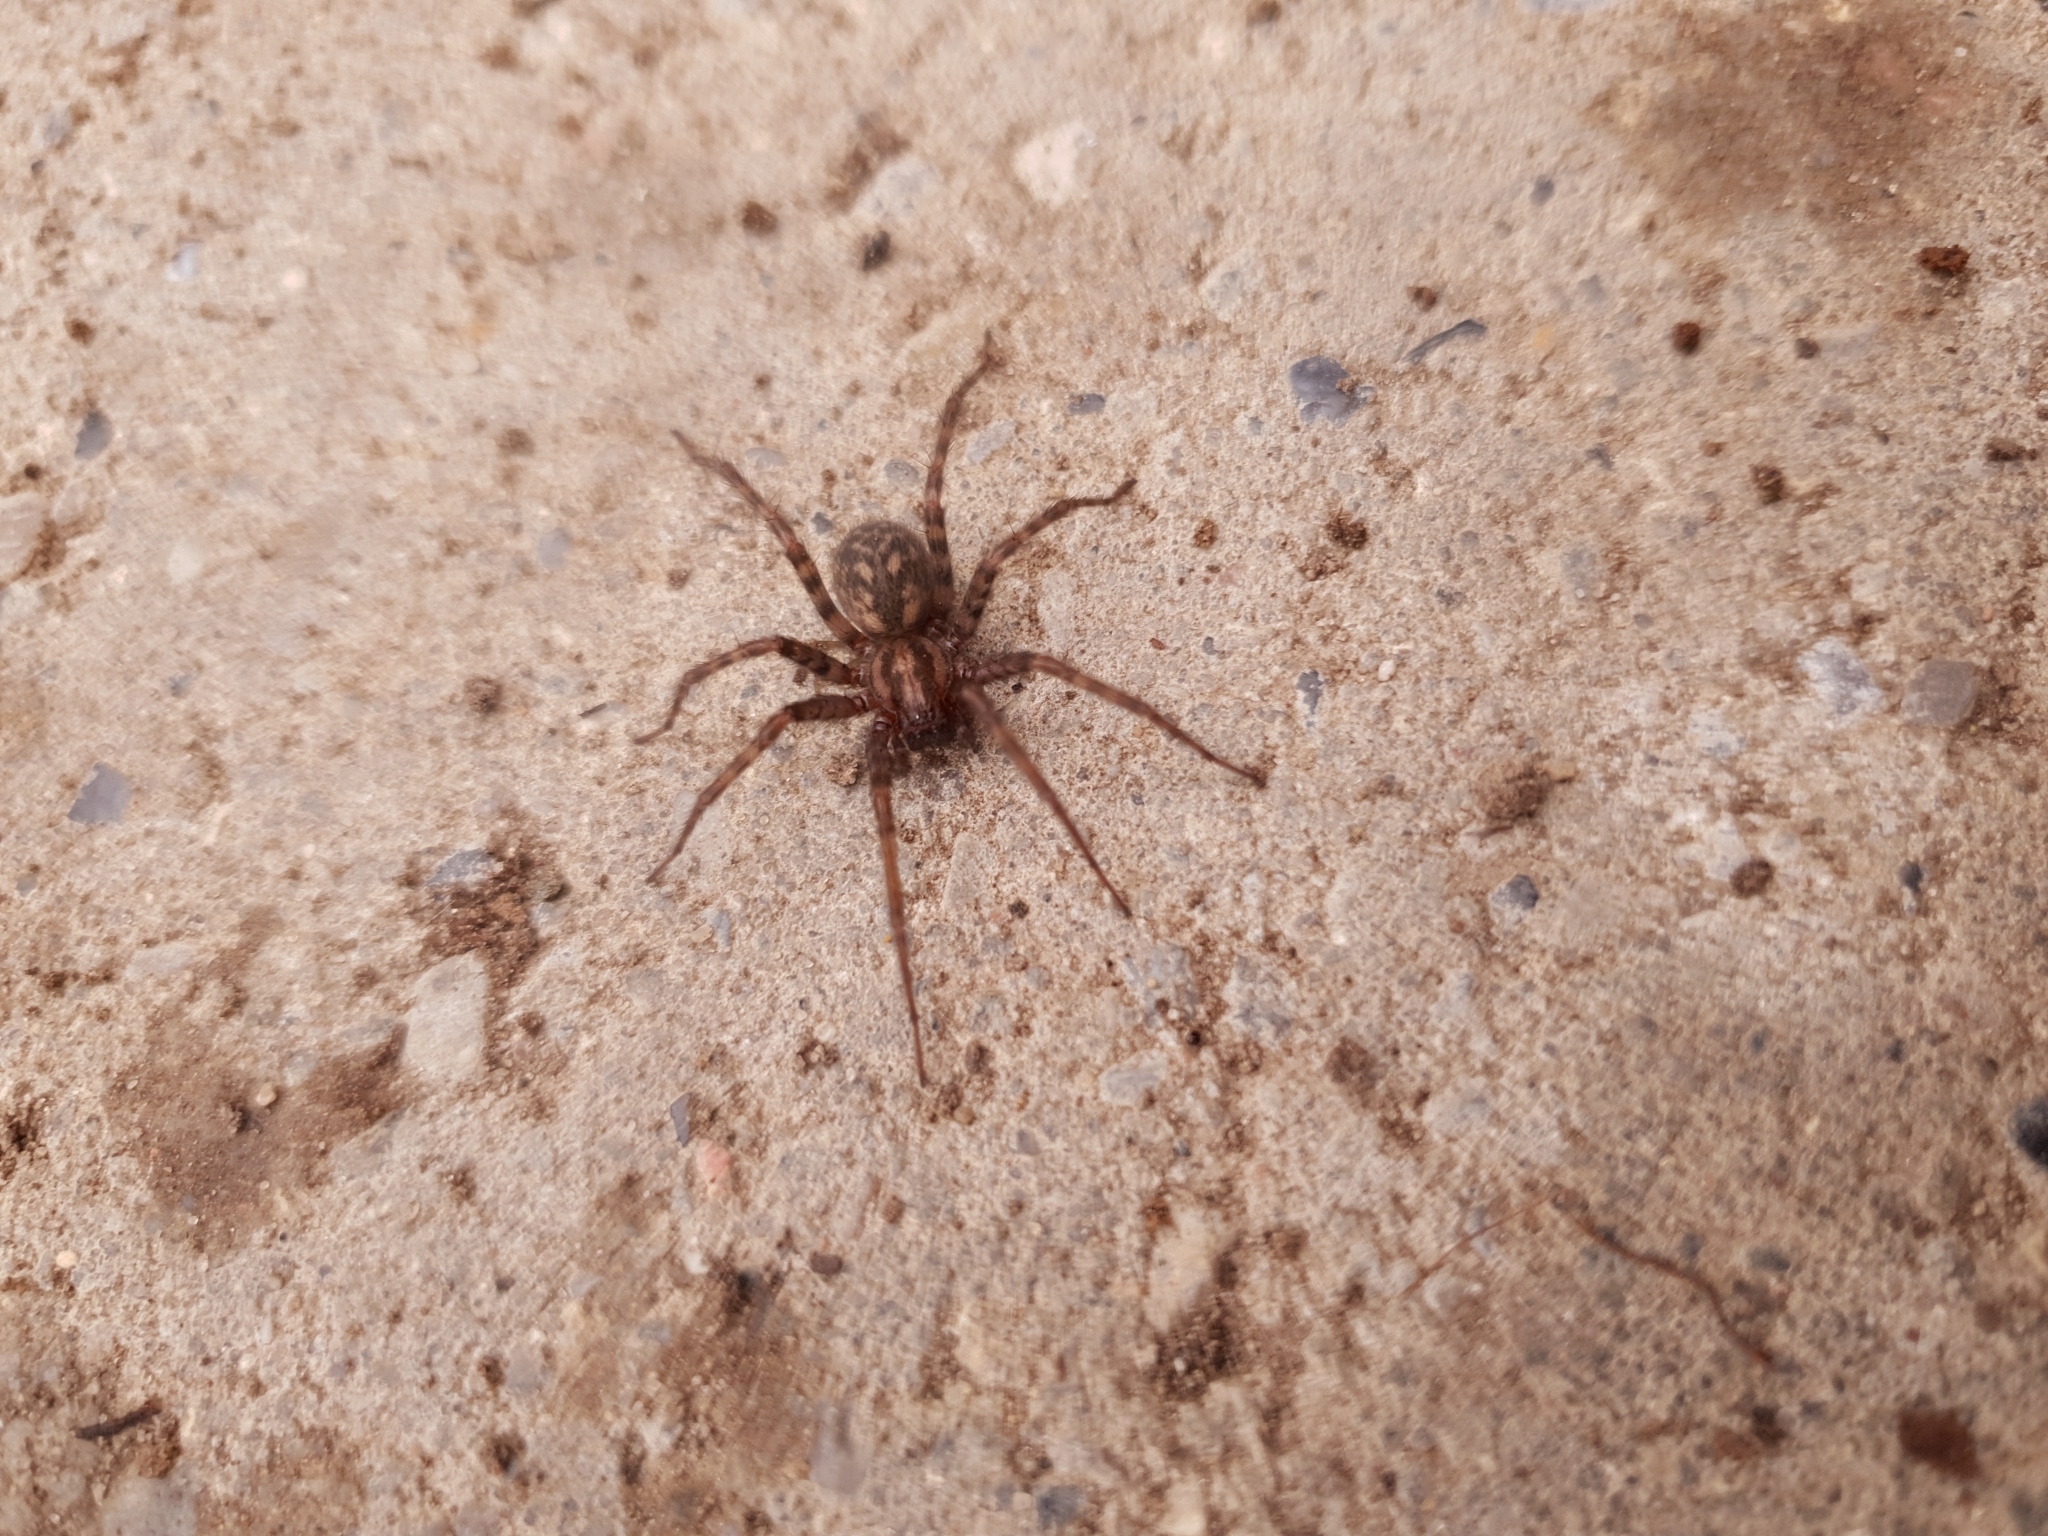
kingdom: Animalia
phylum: Arthropoda
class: Arachnida
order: Araneae
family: Agelenidae
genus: Tegenaria
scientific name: Tegenaria domestica
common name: Barn funnel weaver
